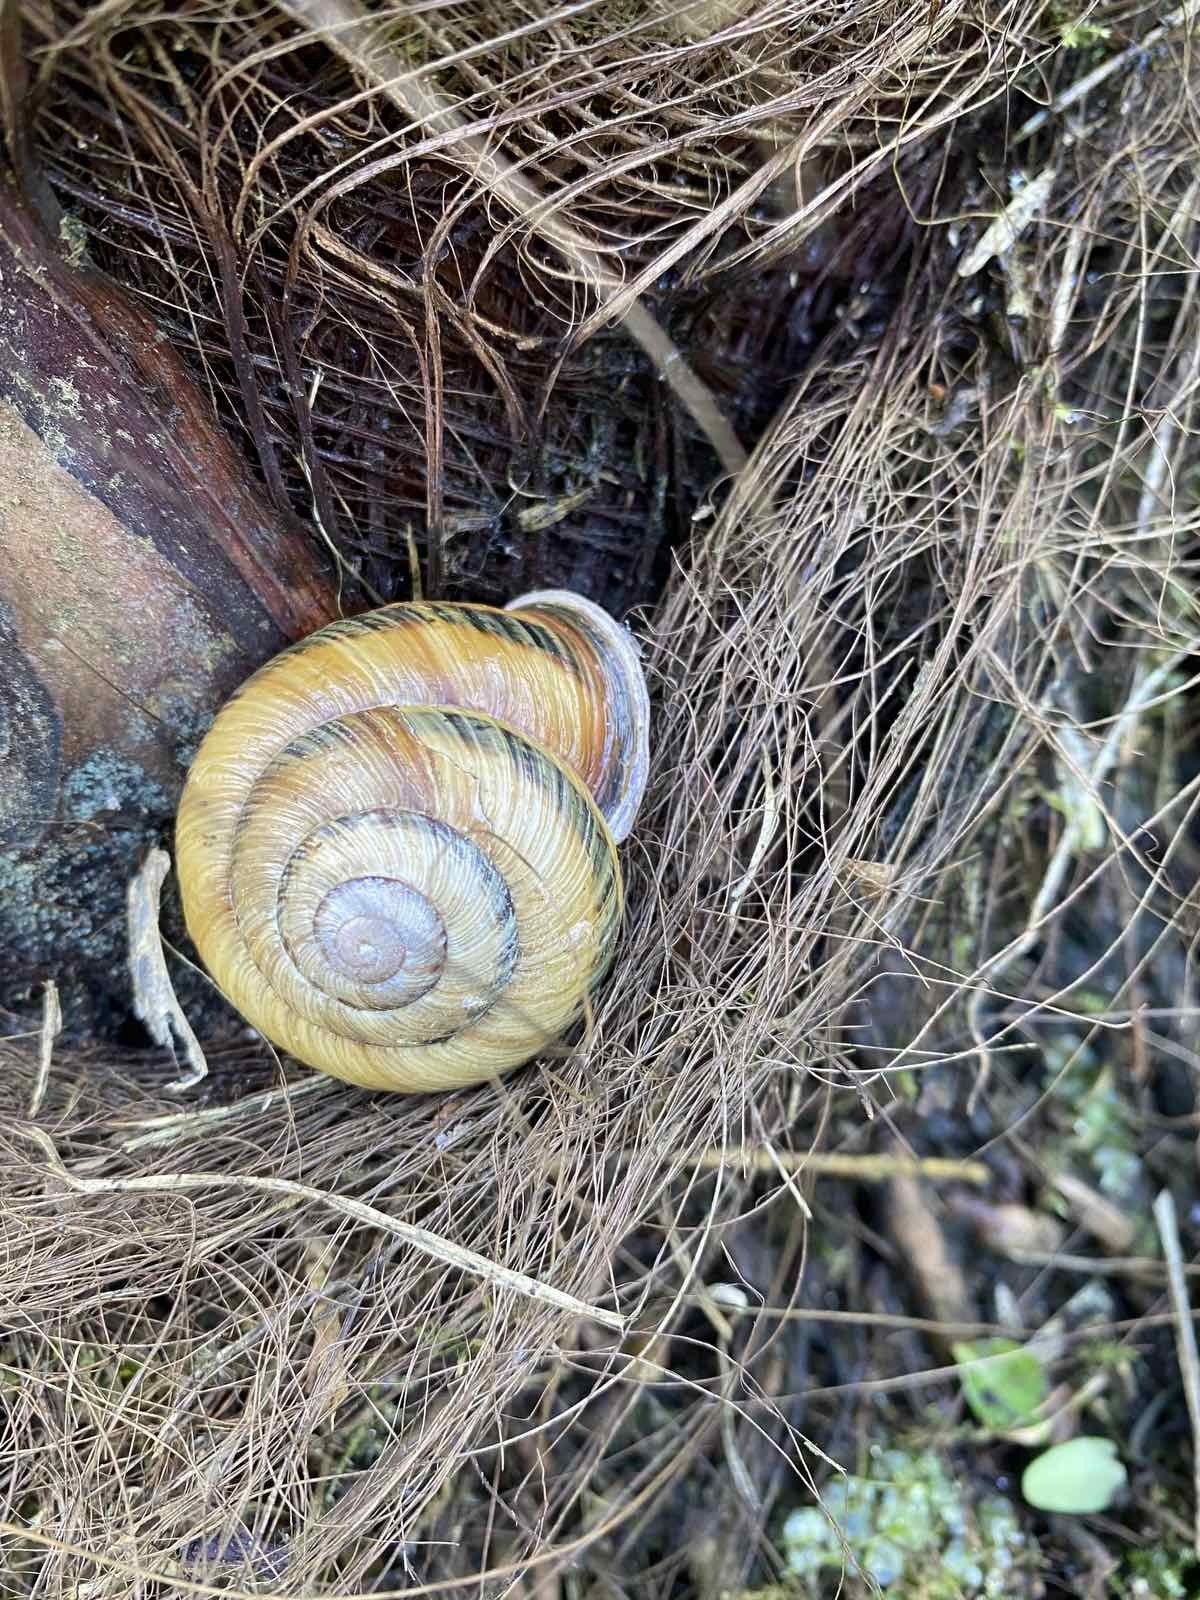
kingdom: Animalia
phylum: Mollusca
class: Gastropoda
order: Stylommatophora
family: Helicidae
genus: Caucasotachea
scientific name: Caucasotachea atrolabiata
